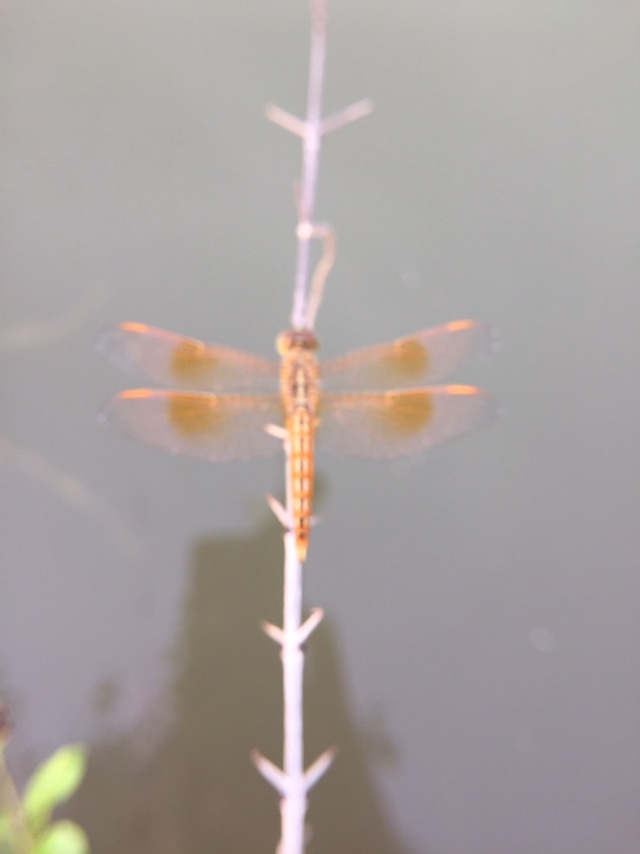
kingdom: Animalia
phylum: Arthropoda
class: Insecta
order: Odonata
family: Libellulidae
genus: Brachythemis
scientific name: Brachythemis contaminata
